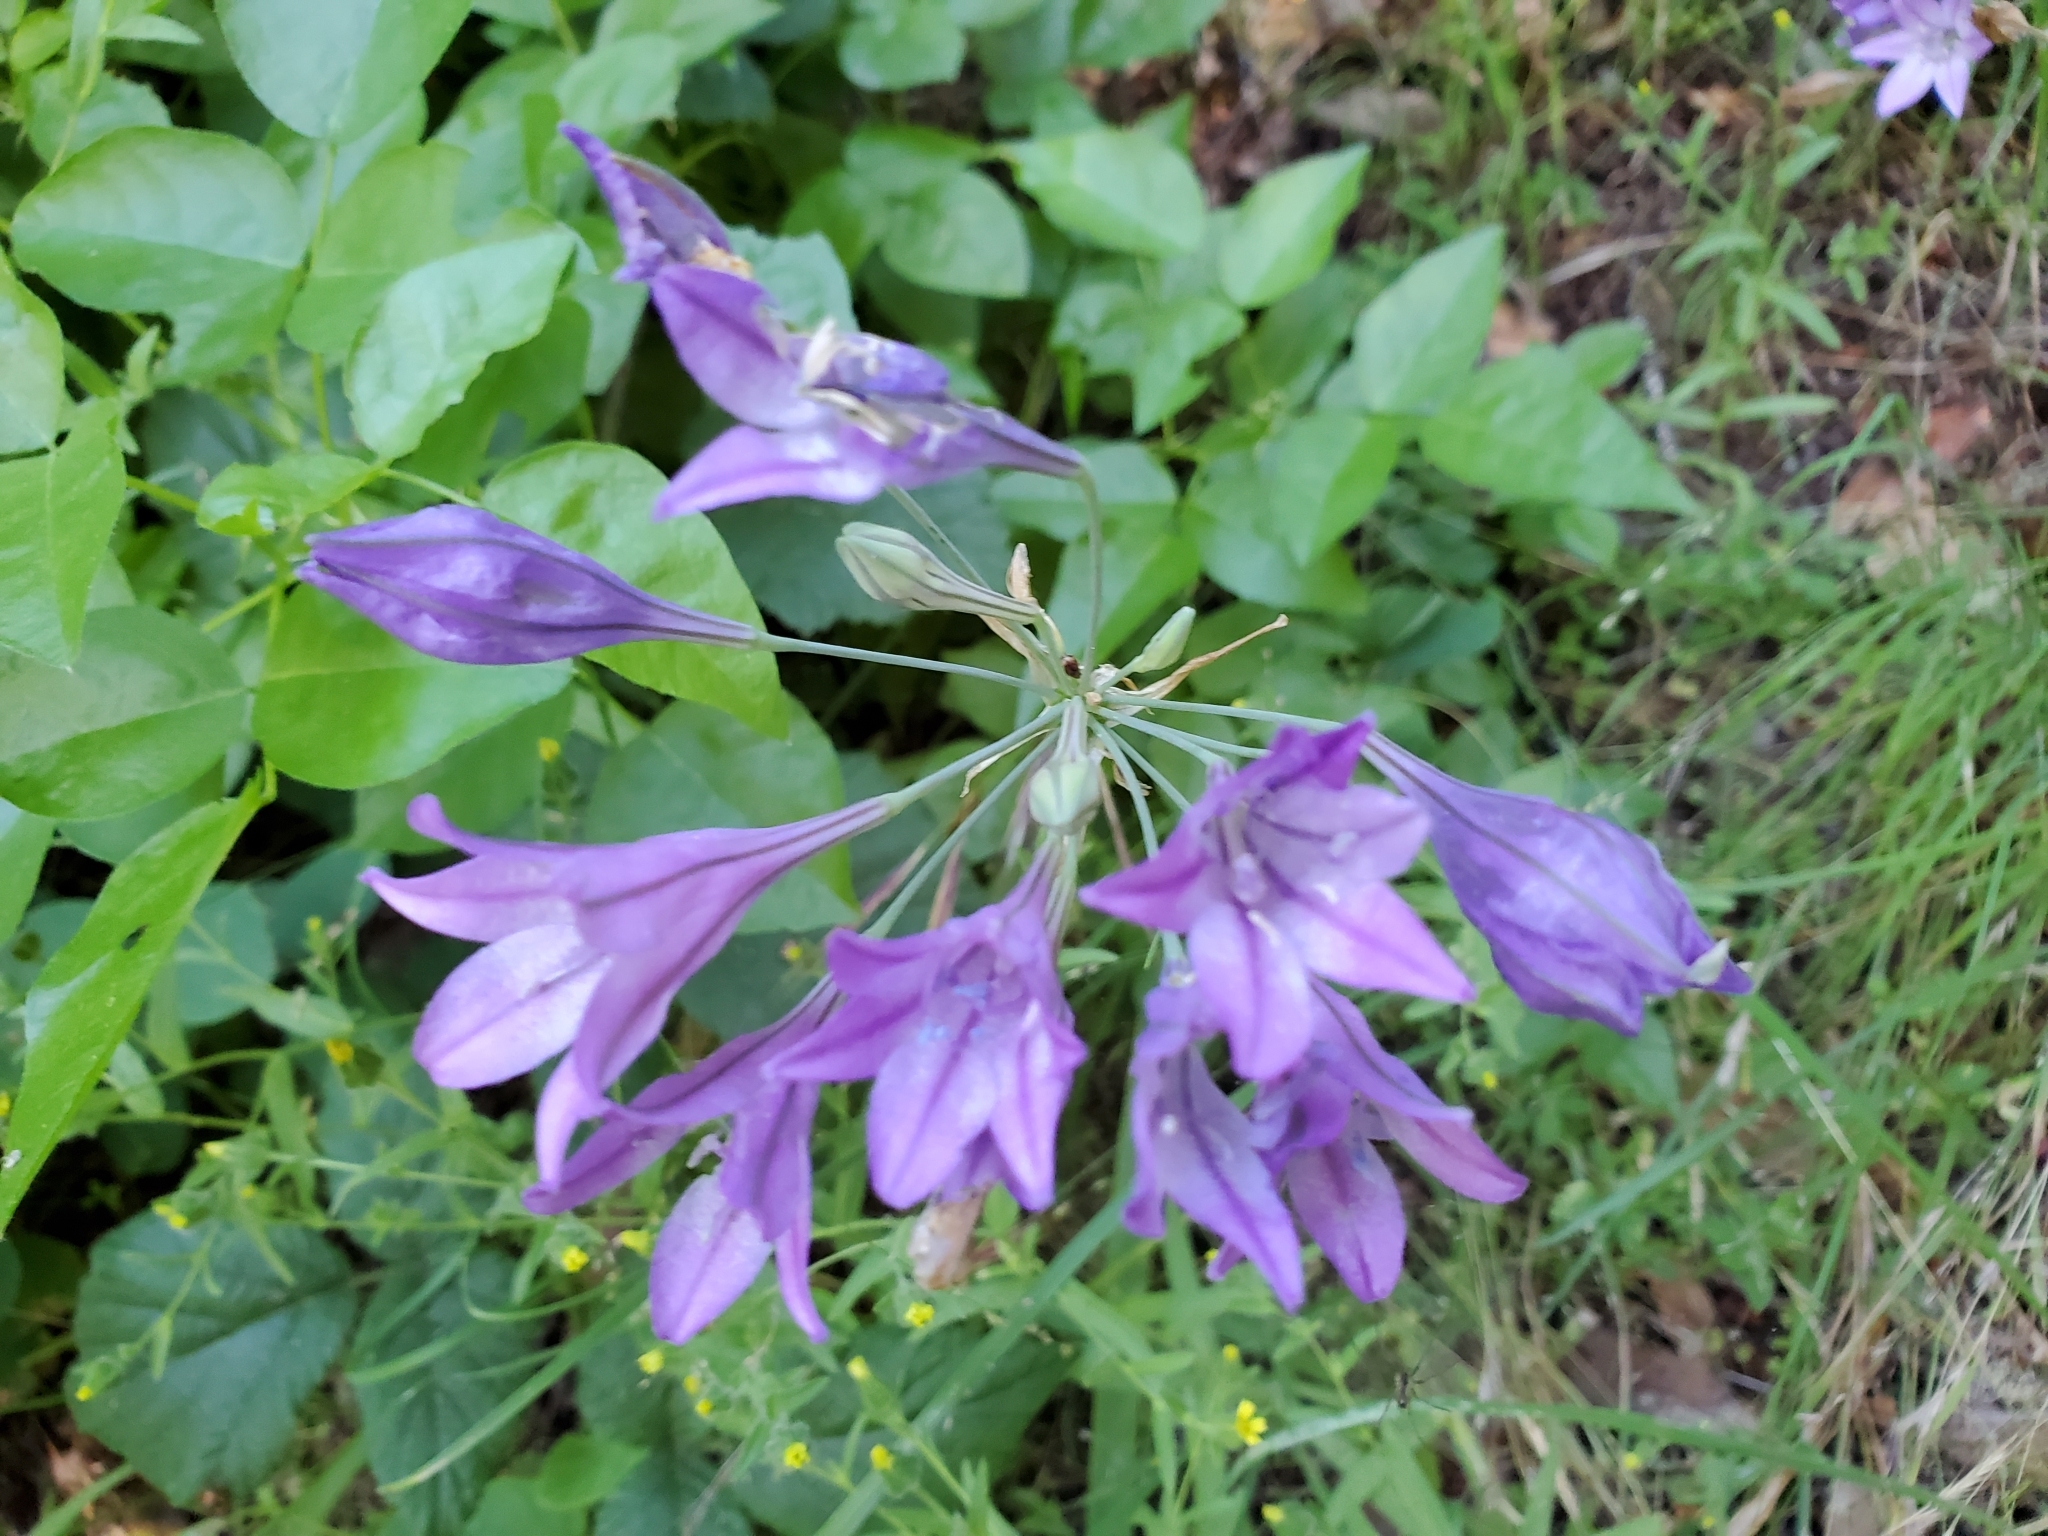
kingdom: Plantae
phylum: Tracheophyta
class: Liliopsida
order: Asparagales
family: Asparagaceae
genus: Triteleia
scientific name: Triteleia laxa
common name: Triplet-lily
